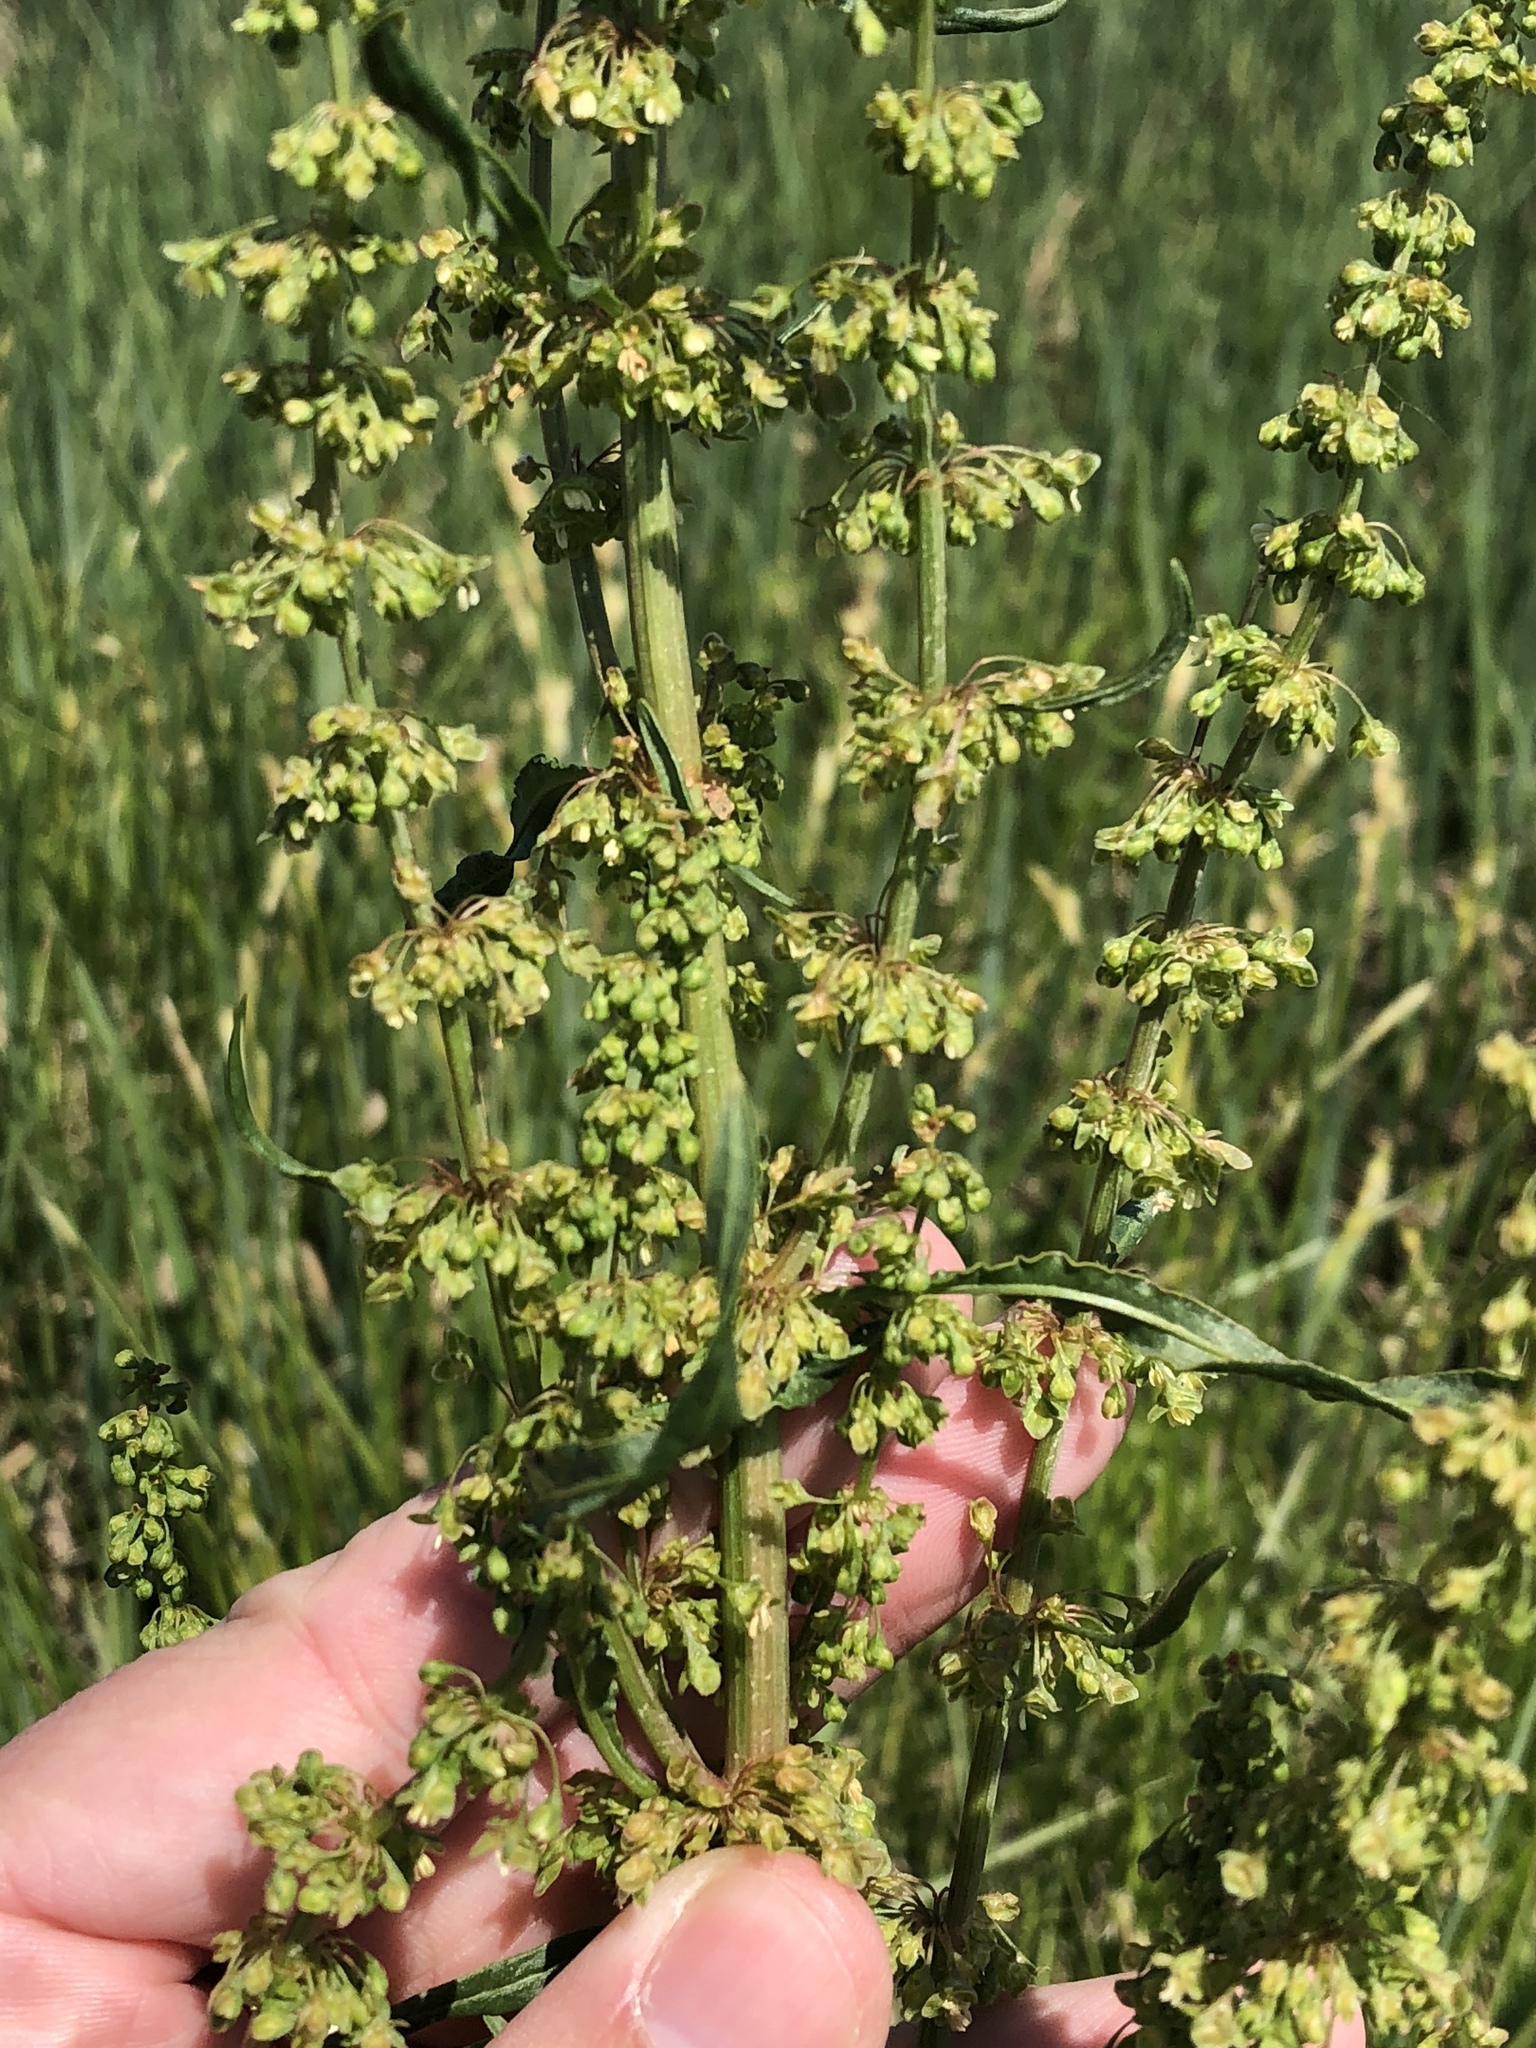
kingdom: Plantae
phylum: Tracheophyta
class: Magnoliopsida
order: Caryophyllales
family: Polygonaceae
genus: Rumex
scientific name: Rumex crispus
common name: Curled dock
